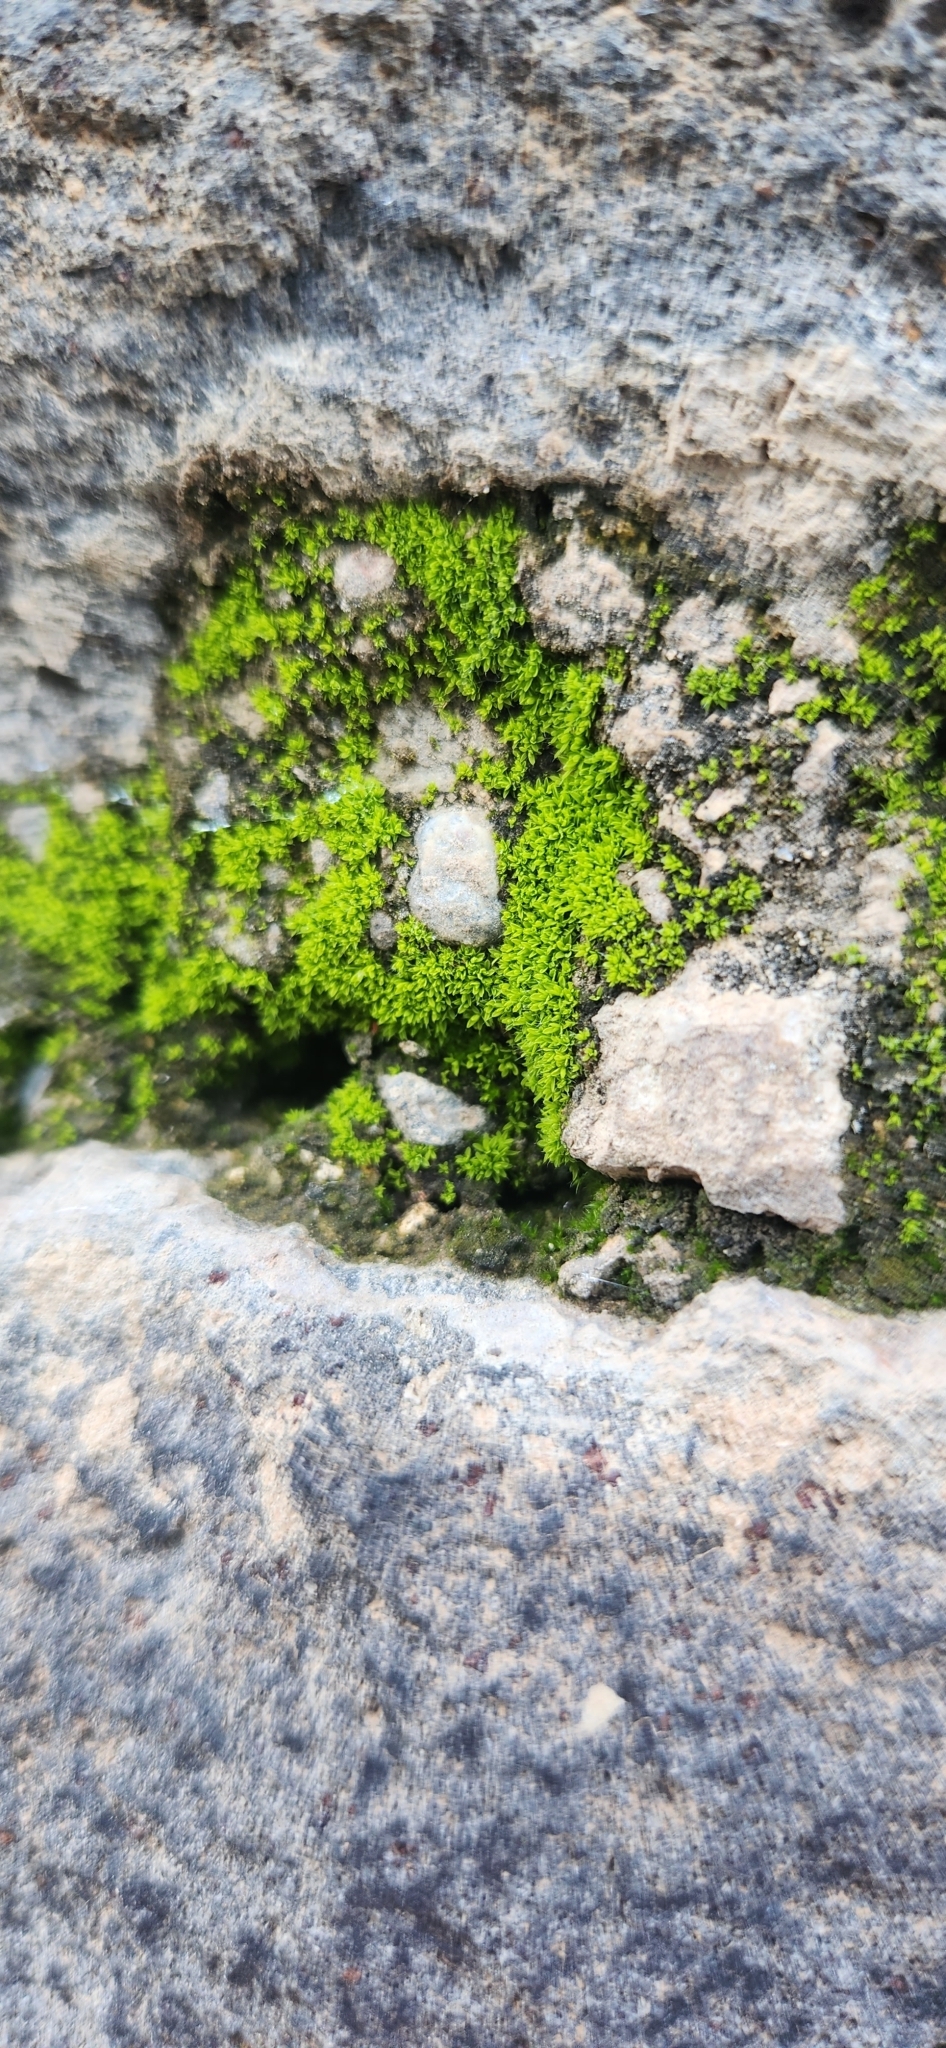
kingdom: Plantae
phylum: Bryophyta
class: Bryopsida
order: Pottiales
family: Pottiaceae
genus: Tortula
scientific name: Tortula muralis
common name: Wall screw-moss
